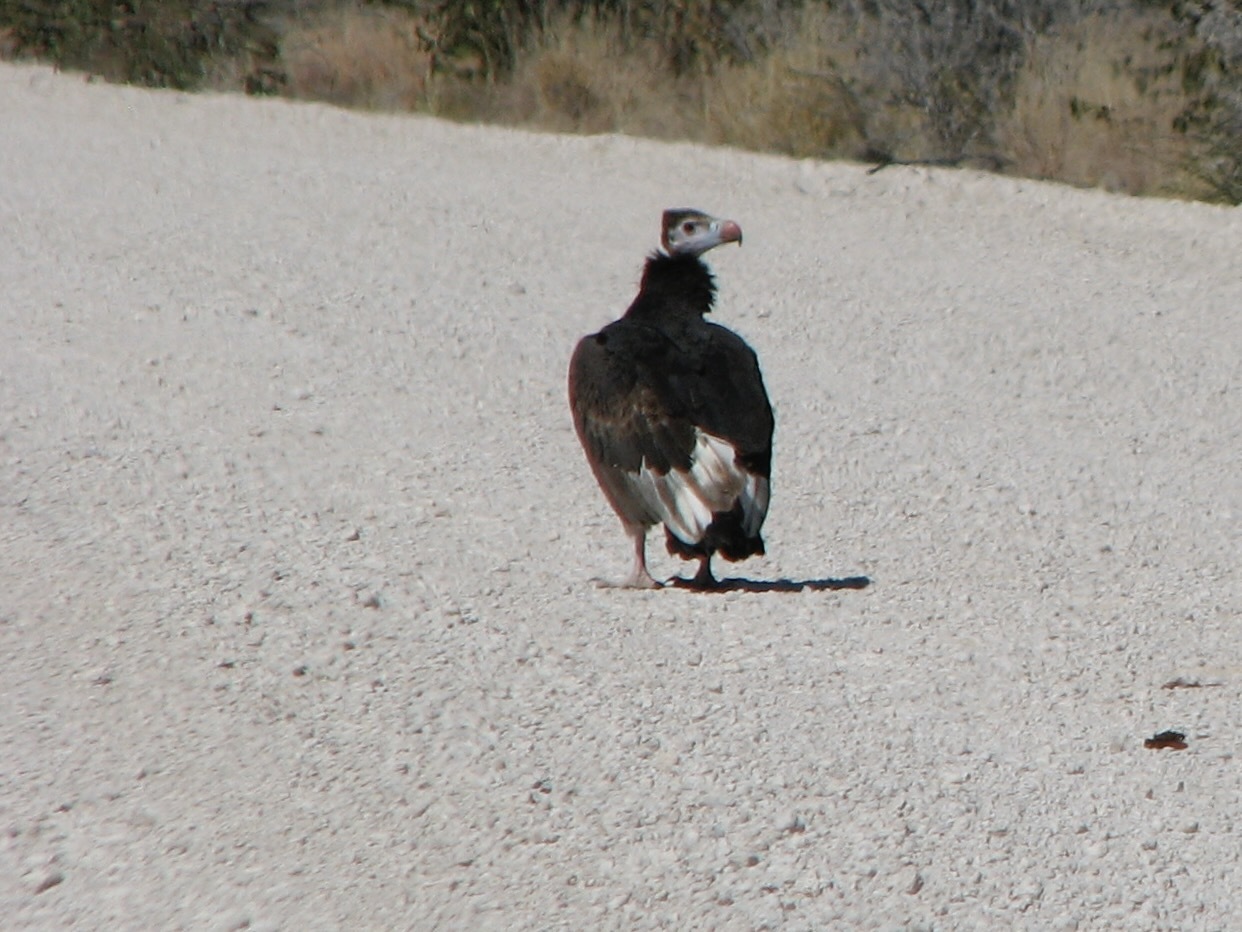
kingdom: Animalia
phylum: Chordata
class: Aves
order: Accipitriformes
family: Accipitridae
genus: Trigonoceps
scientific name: Trigonoceps occipitalis
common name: White-headed vulture
